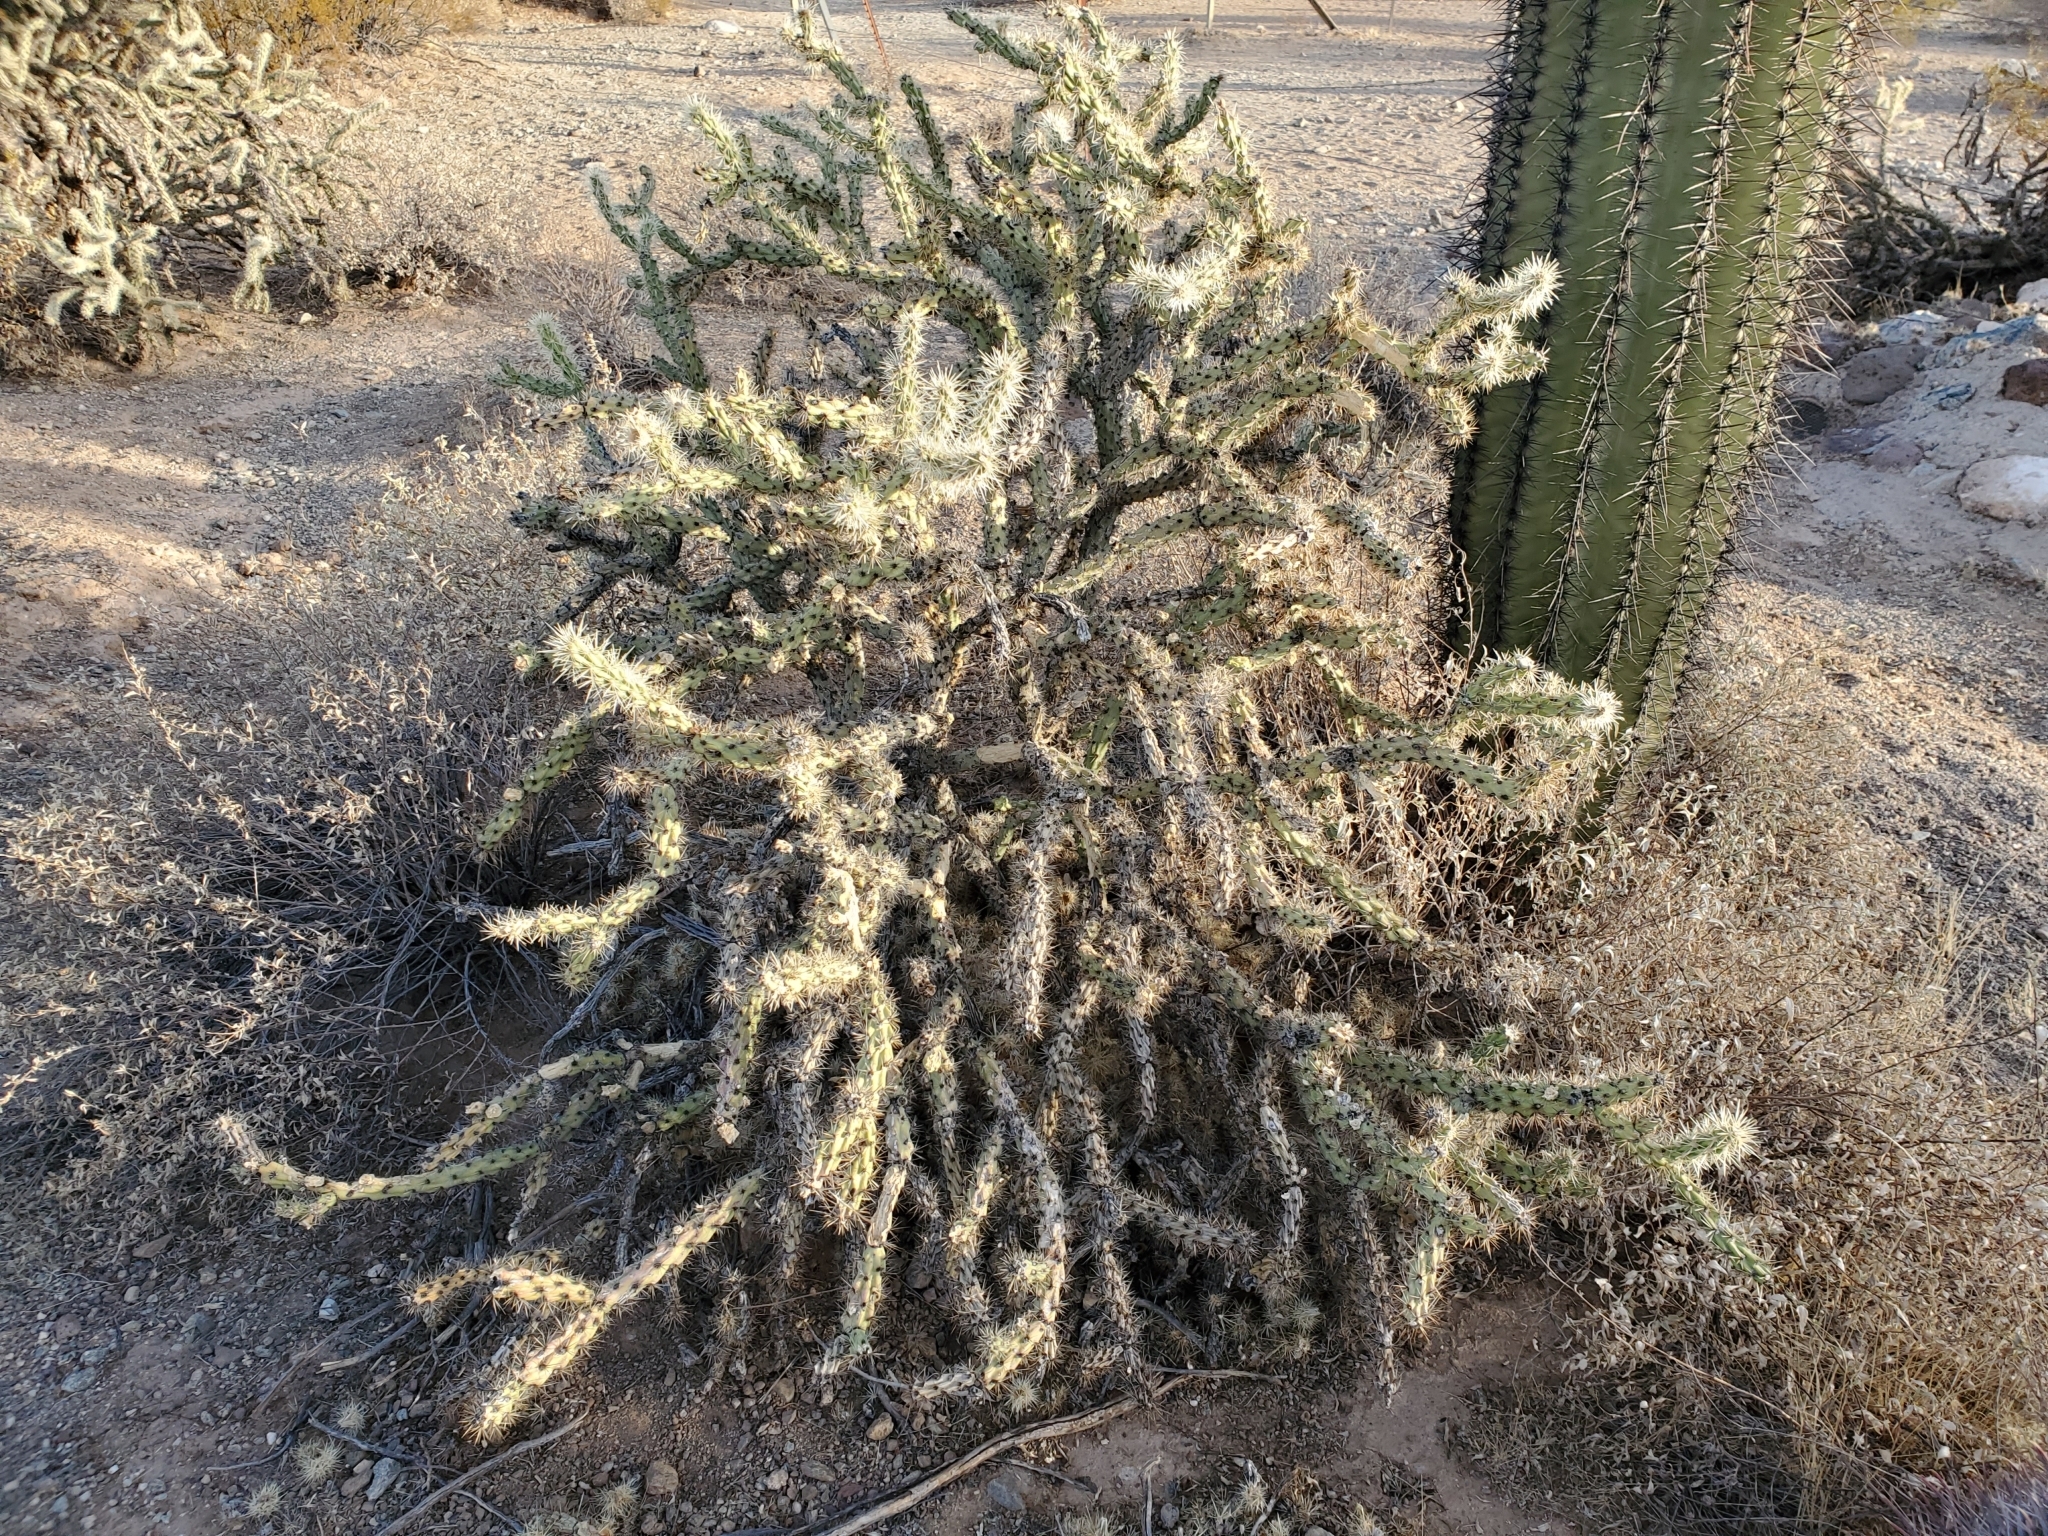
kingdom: Plantae
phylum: Tracheophyta
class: Magnoliopsida
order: Caryophyllales
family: Cactaceae
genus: Cylindropuntia
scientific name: Cylindropuntia acanthocarpa
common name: Buckhorn cholla
